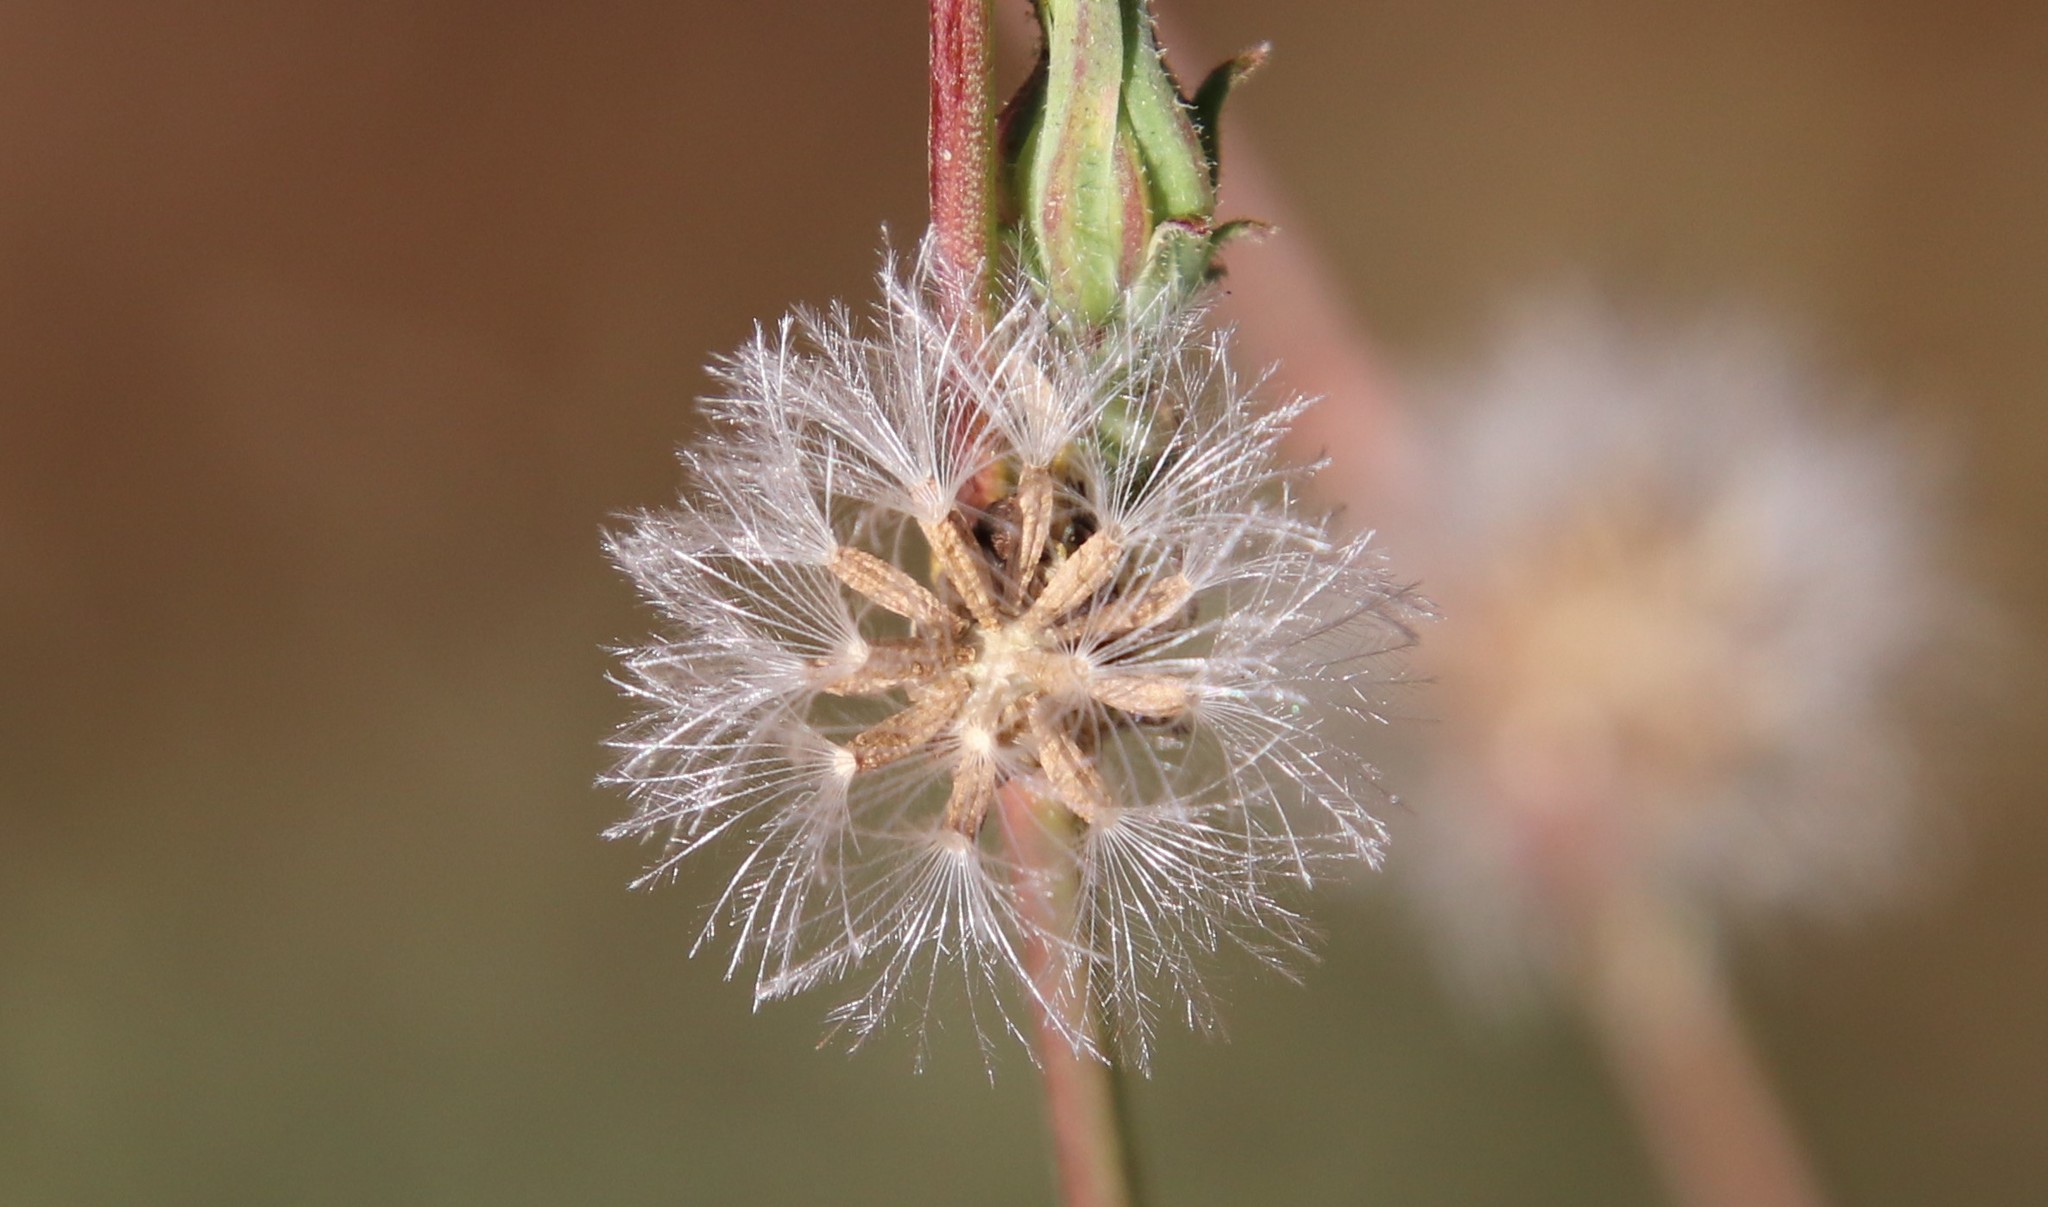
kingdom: Plantae
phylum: Tracheophyta
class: Magnoliopsida
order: Asterales
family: Asteraceae
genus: Stephanomeria
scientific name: Stephanomeria diegensis
